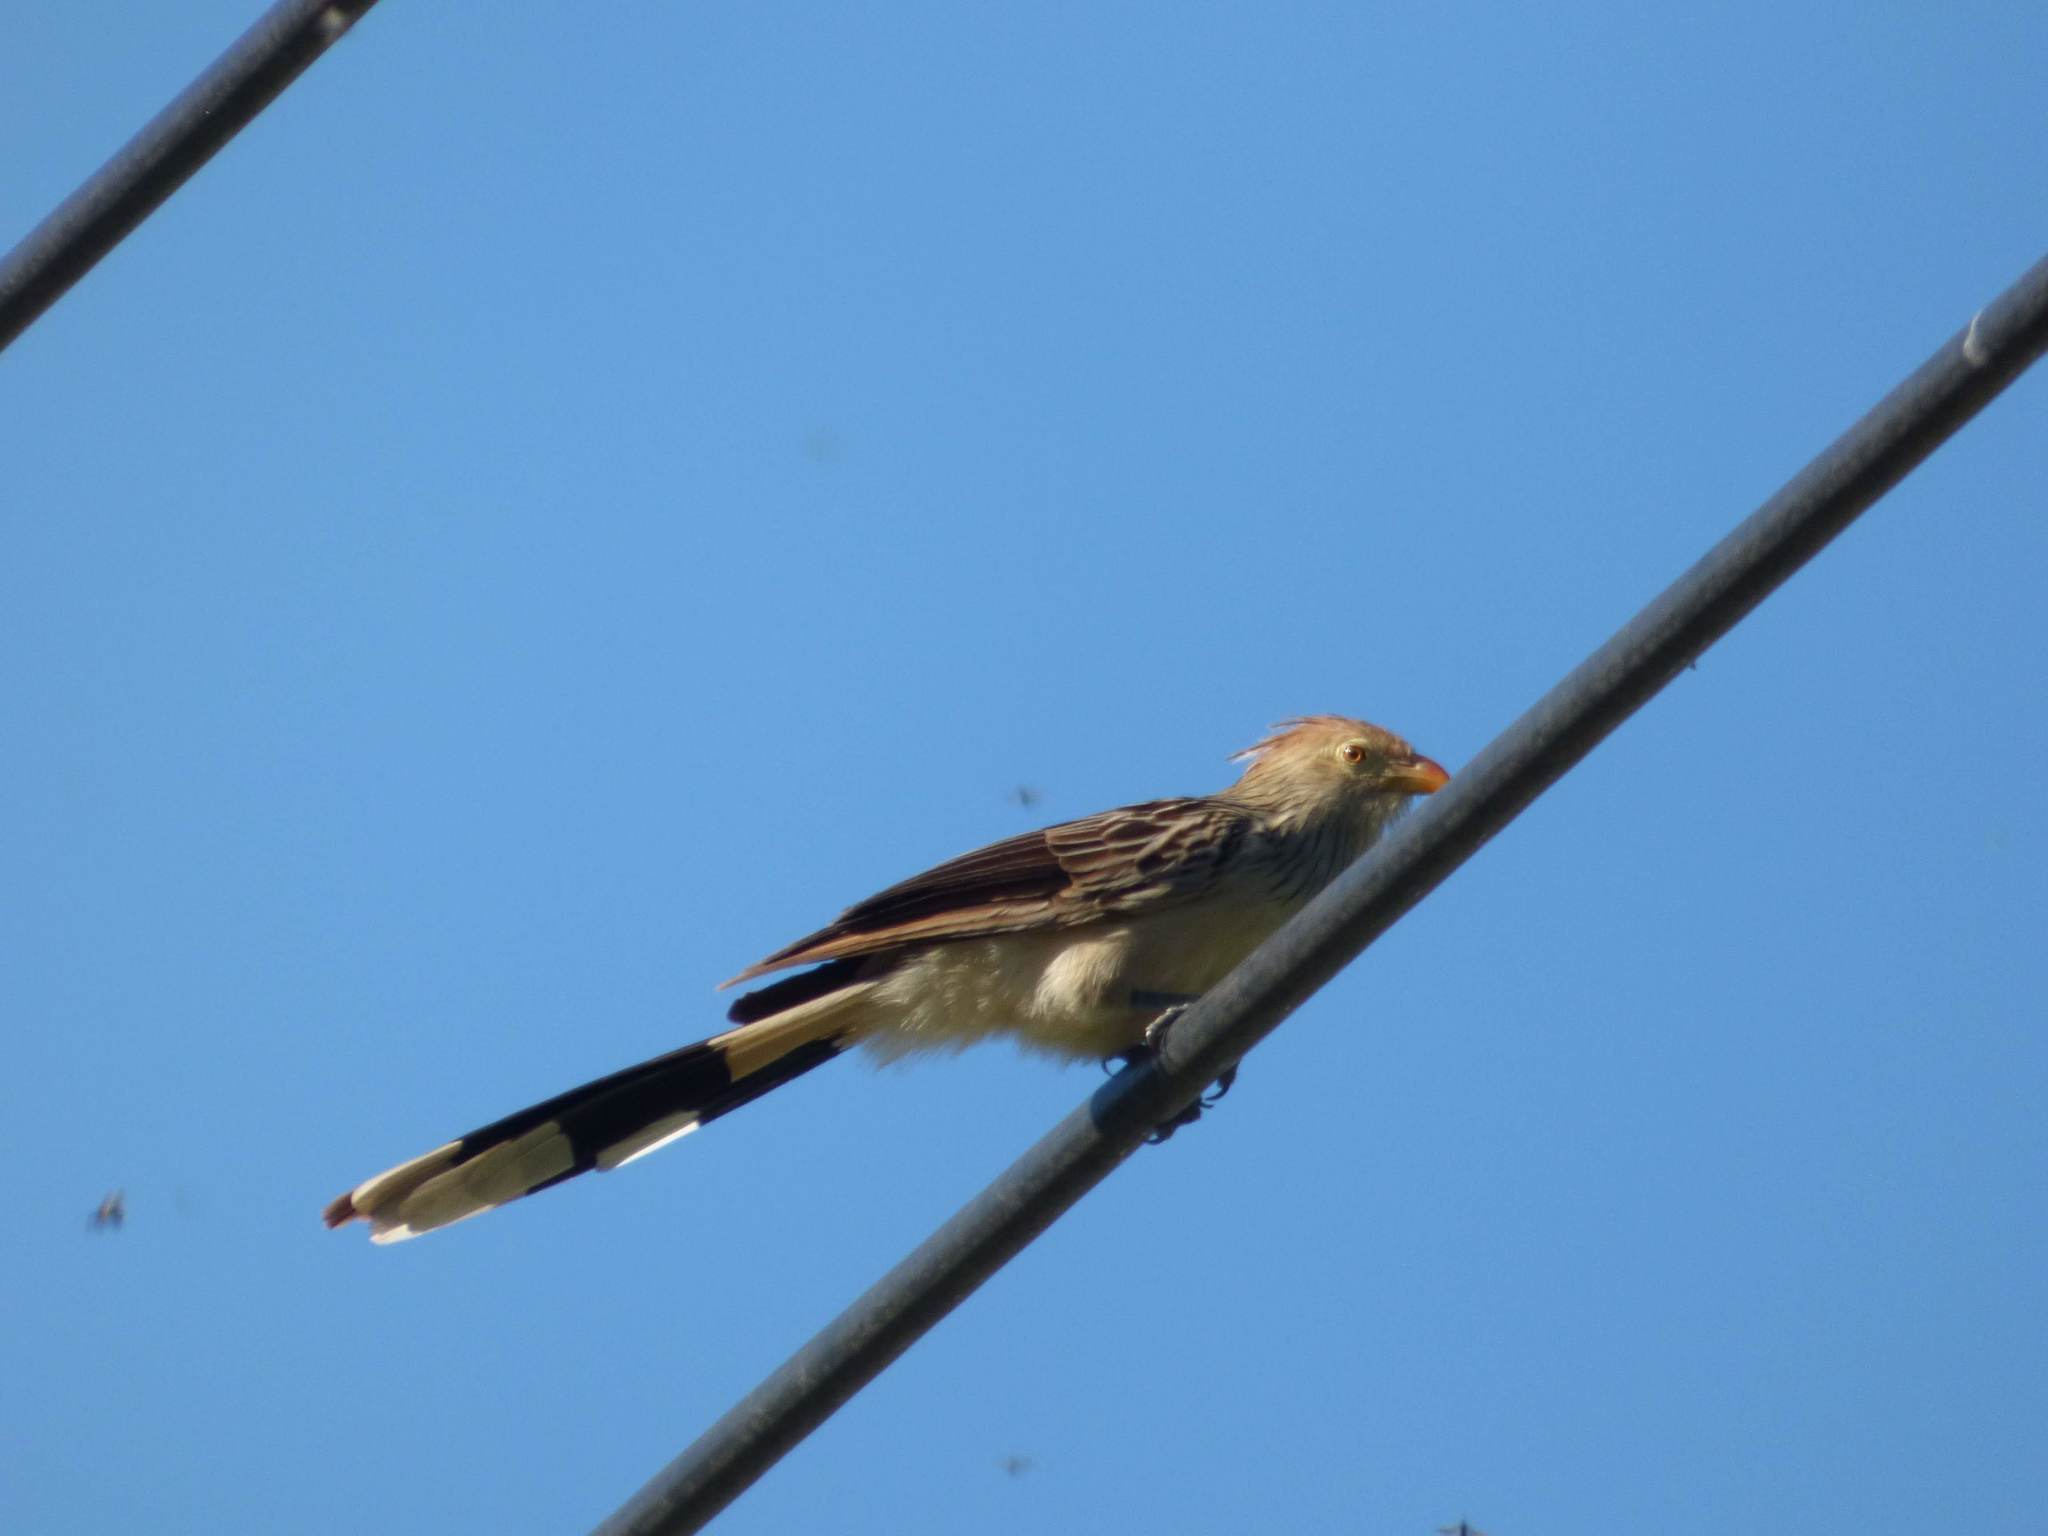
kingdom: Animalia
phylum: Chordata
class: Aves
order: Cuculiformes
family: Cuculidae
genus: Guira
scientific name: Guira guira
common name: Guira cuckoo
